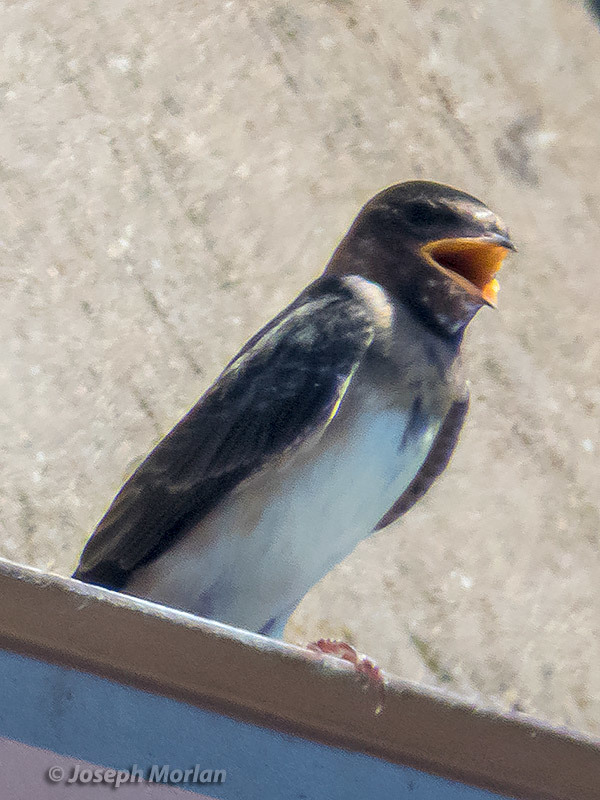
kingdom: Animalia
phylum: Chordata
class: Aves
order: Passeriformes
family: Hirundinidae
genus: Petrochelidon
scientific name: Petrochelidon pyrrhonota
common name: American cliff swallow
